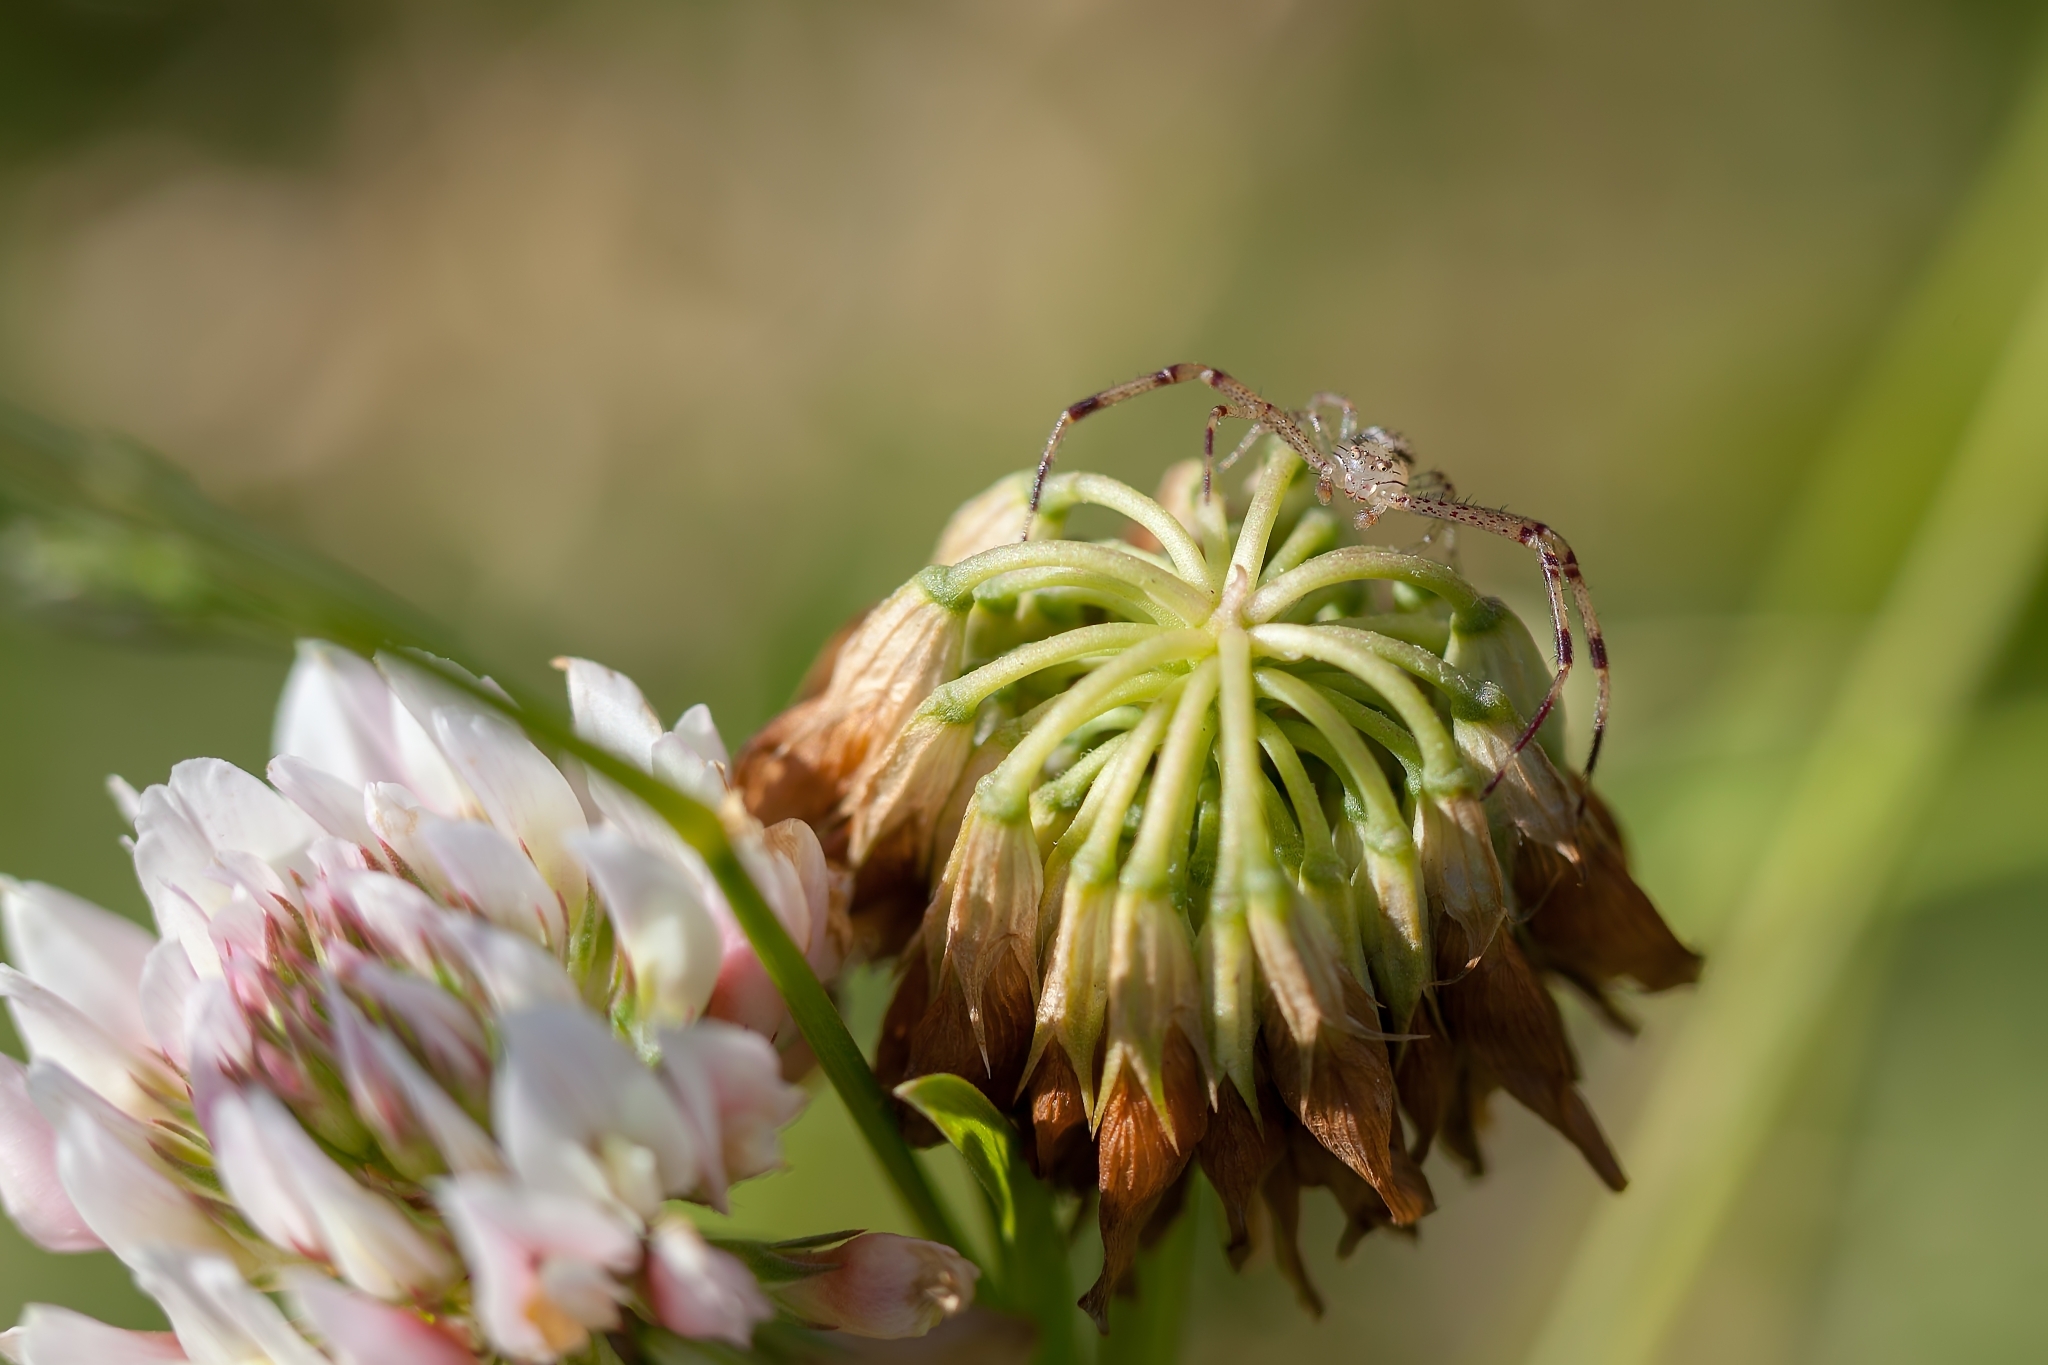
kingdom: Animalia
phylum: Arthropoda
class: Arachnida
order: Araneae
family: Thomisidae
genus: Mecaphesa
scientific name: Mecaphesa celer
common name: Crab spiders
